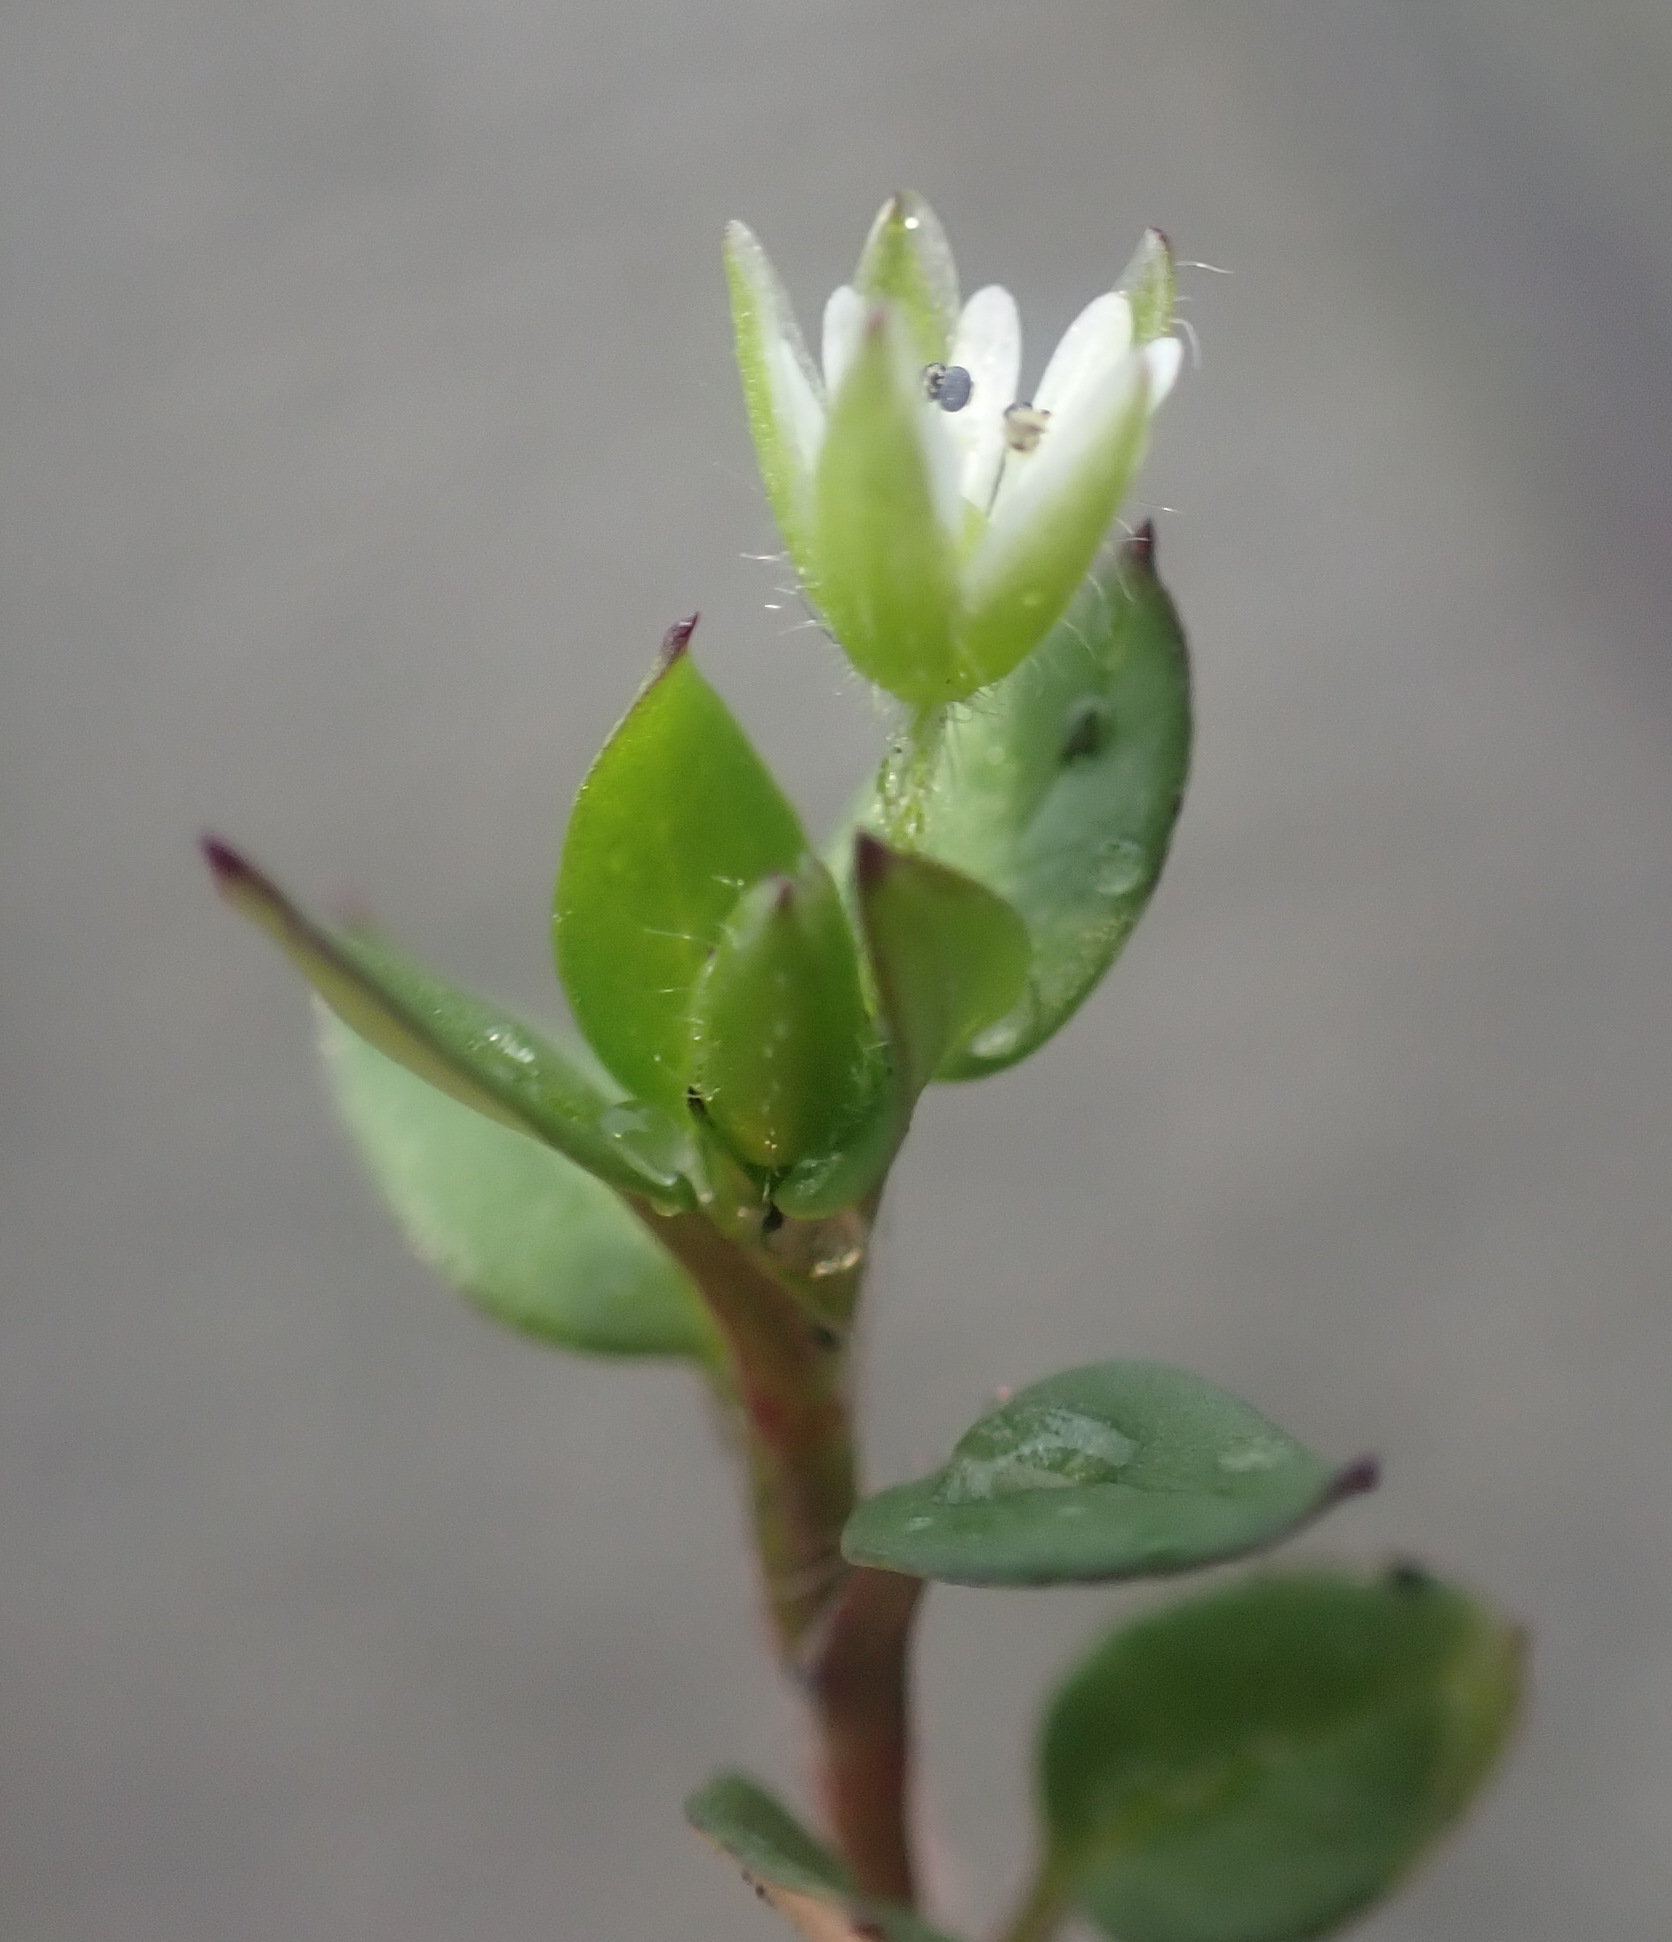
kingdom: Plantae
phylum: Tracheophyta
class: Magnoliopsida
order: Caryophyllales
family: Caryophyllaceae
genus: Stellaria
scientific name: Stellaria media
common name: Common chickweed
